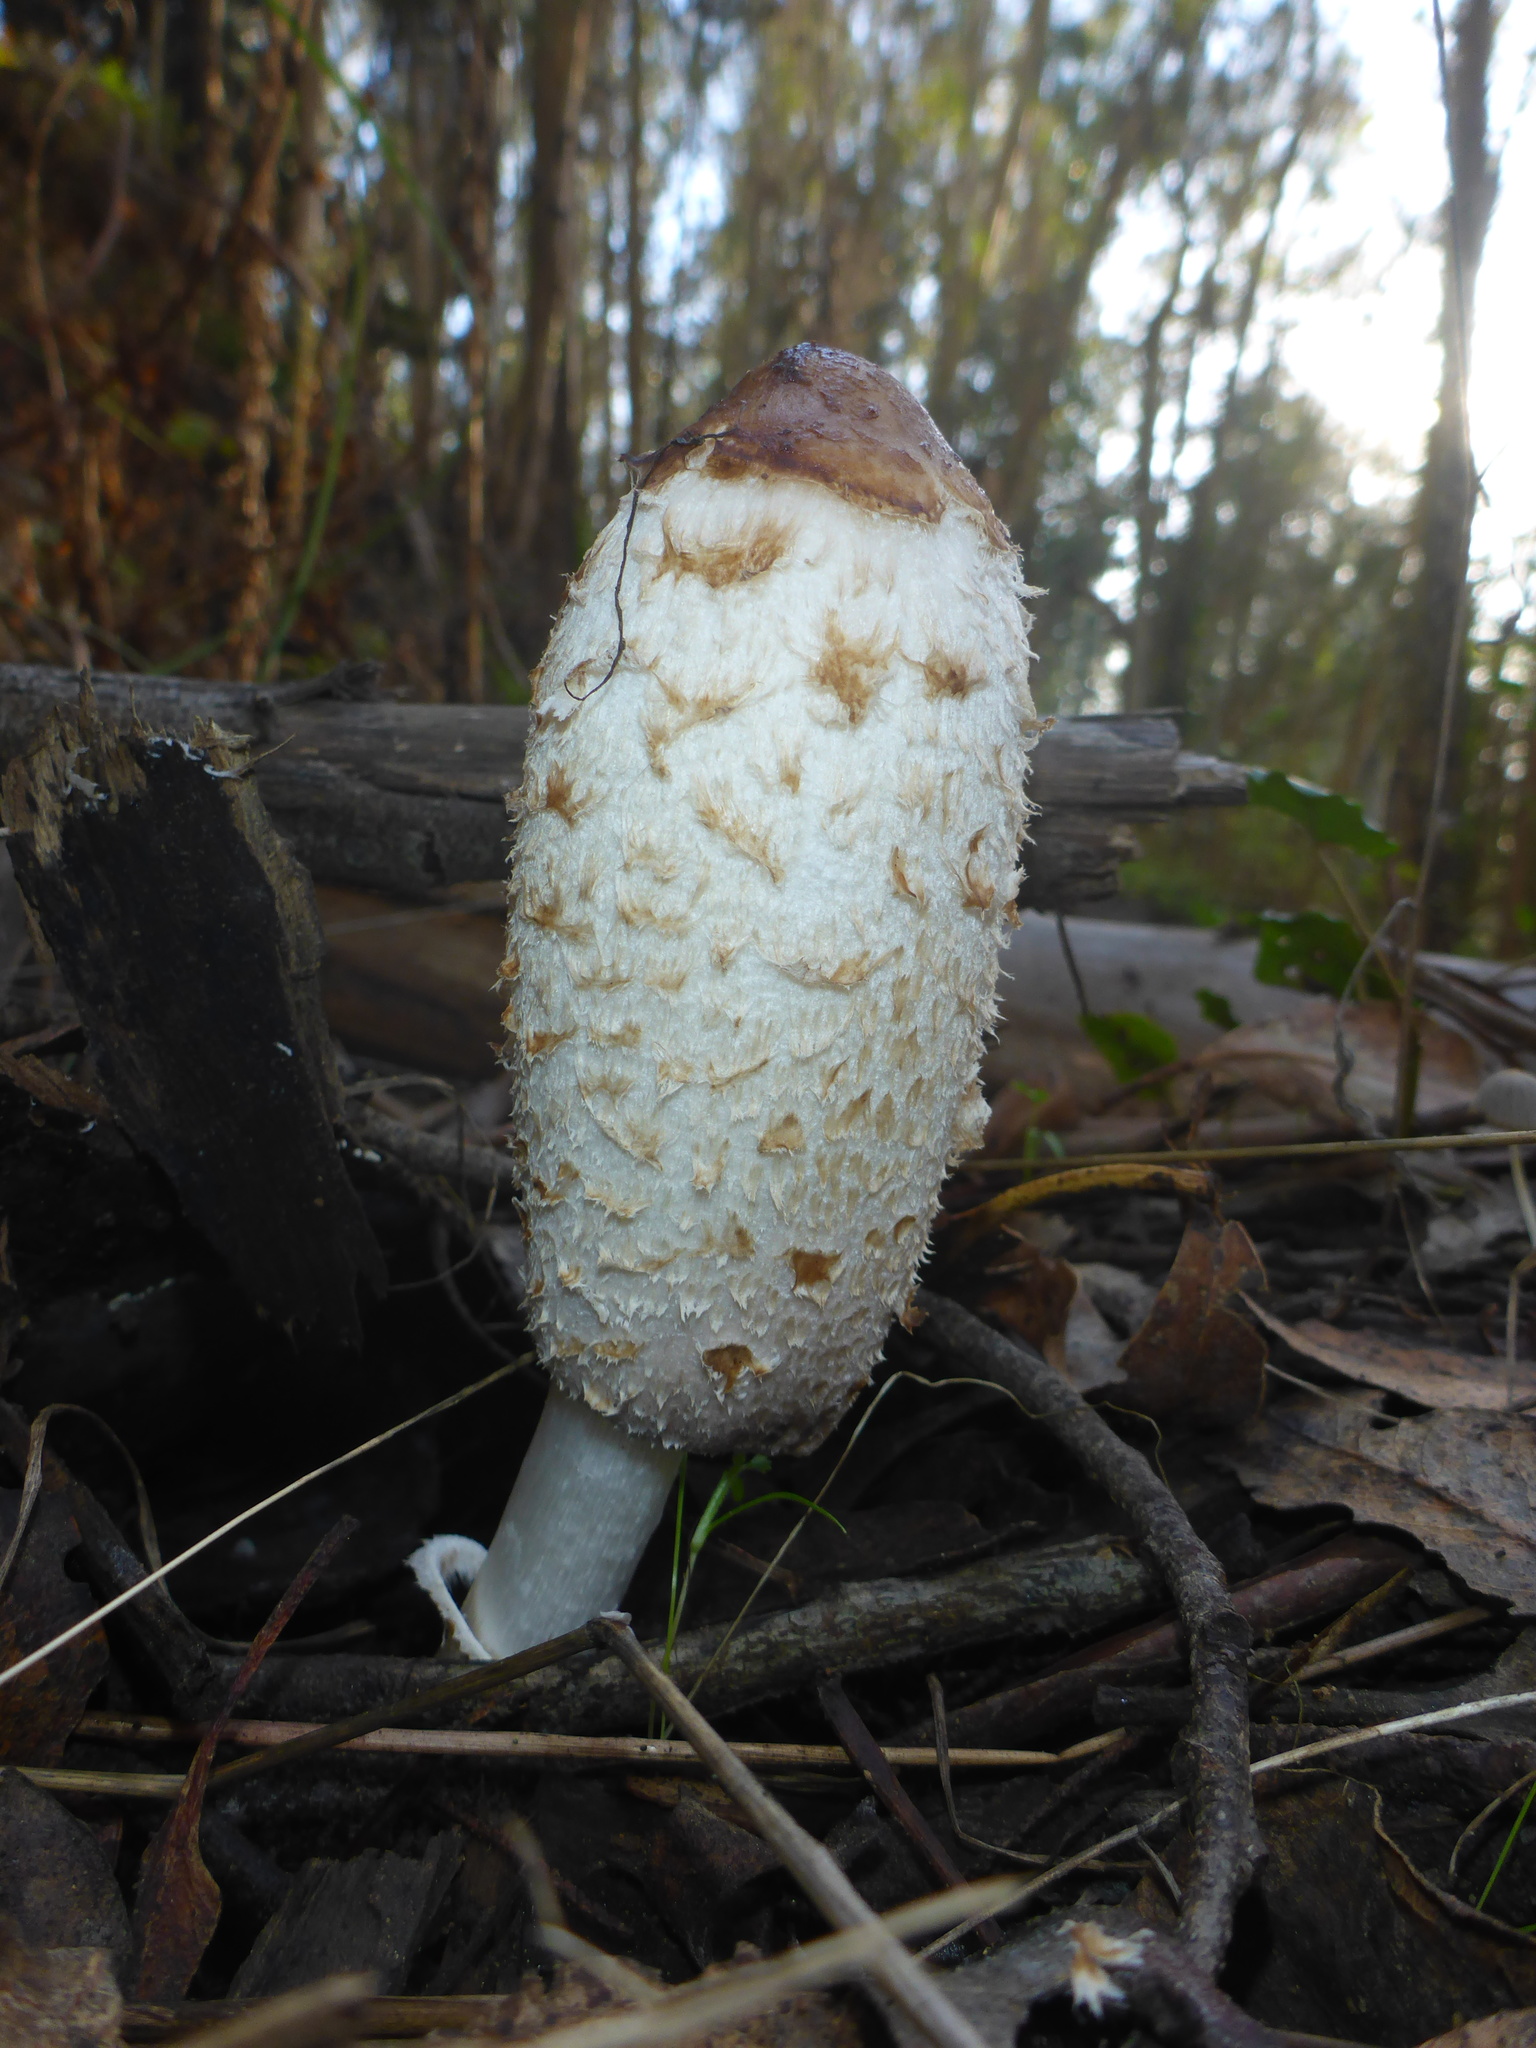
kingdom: Fungi
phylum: Basidiomycota
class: Agaricomycetes
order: Agaricales
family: Agaricaceae
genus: Coprinus
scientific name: Coprinus comatus
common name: Lawyer's wig
